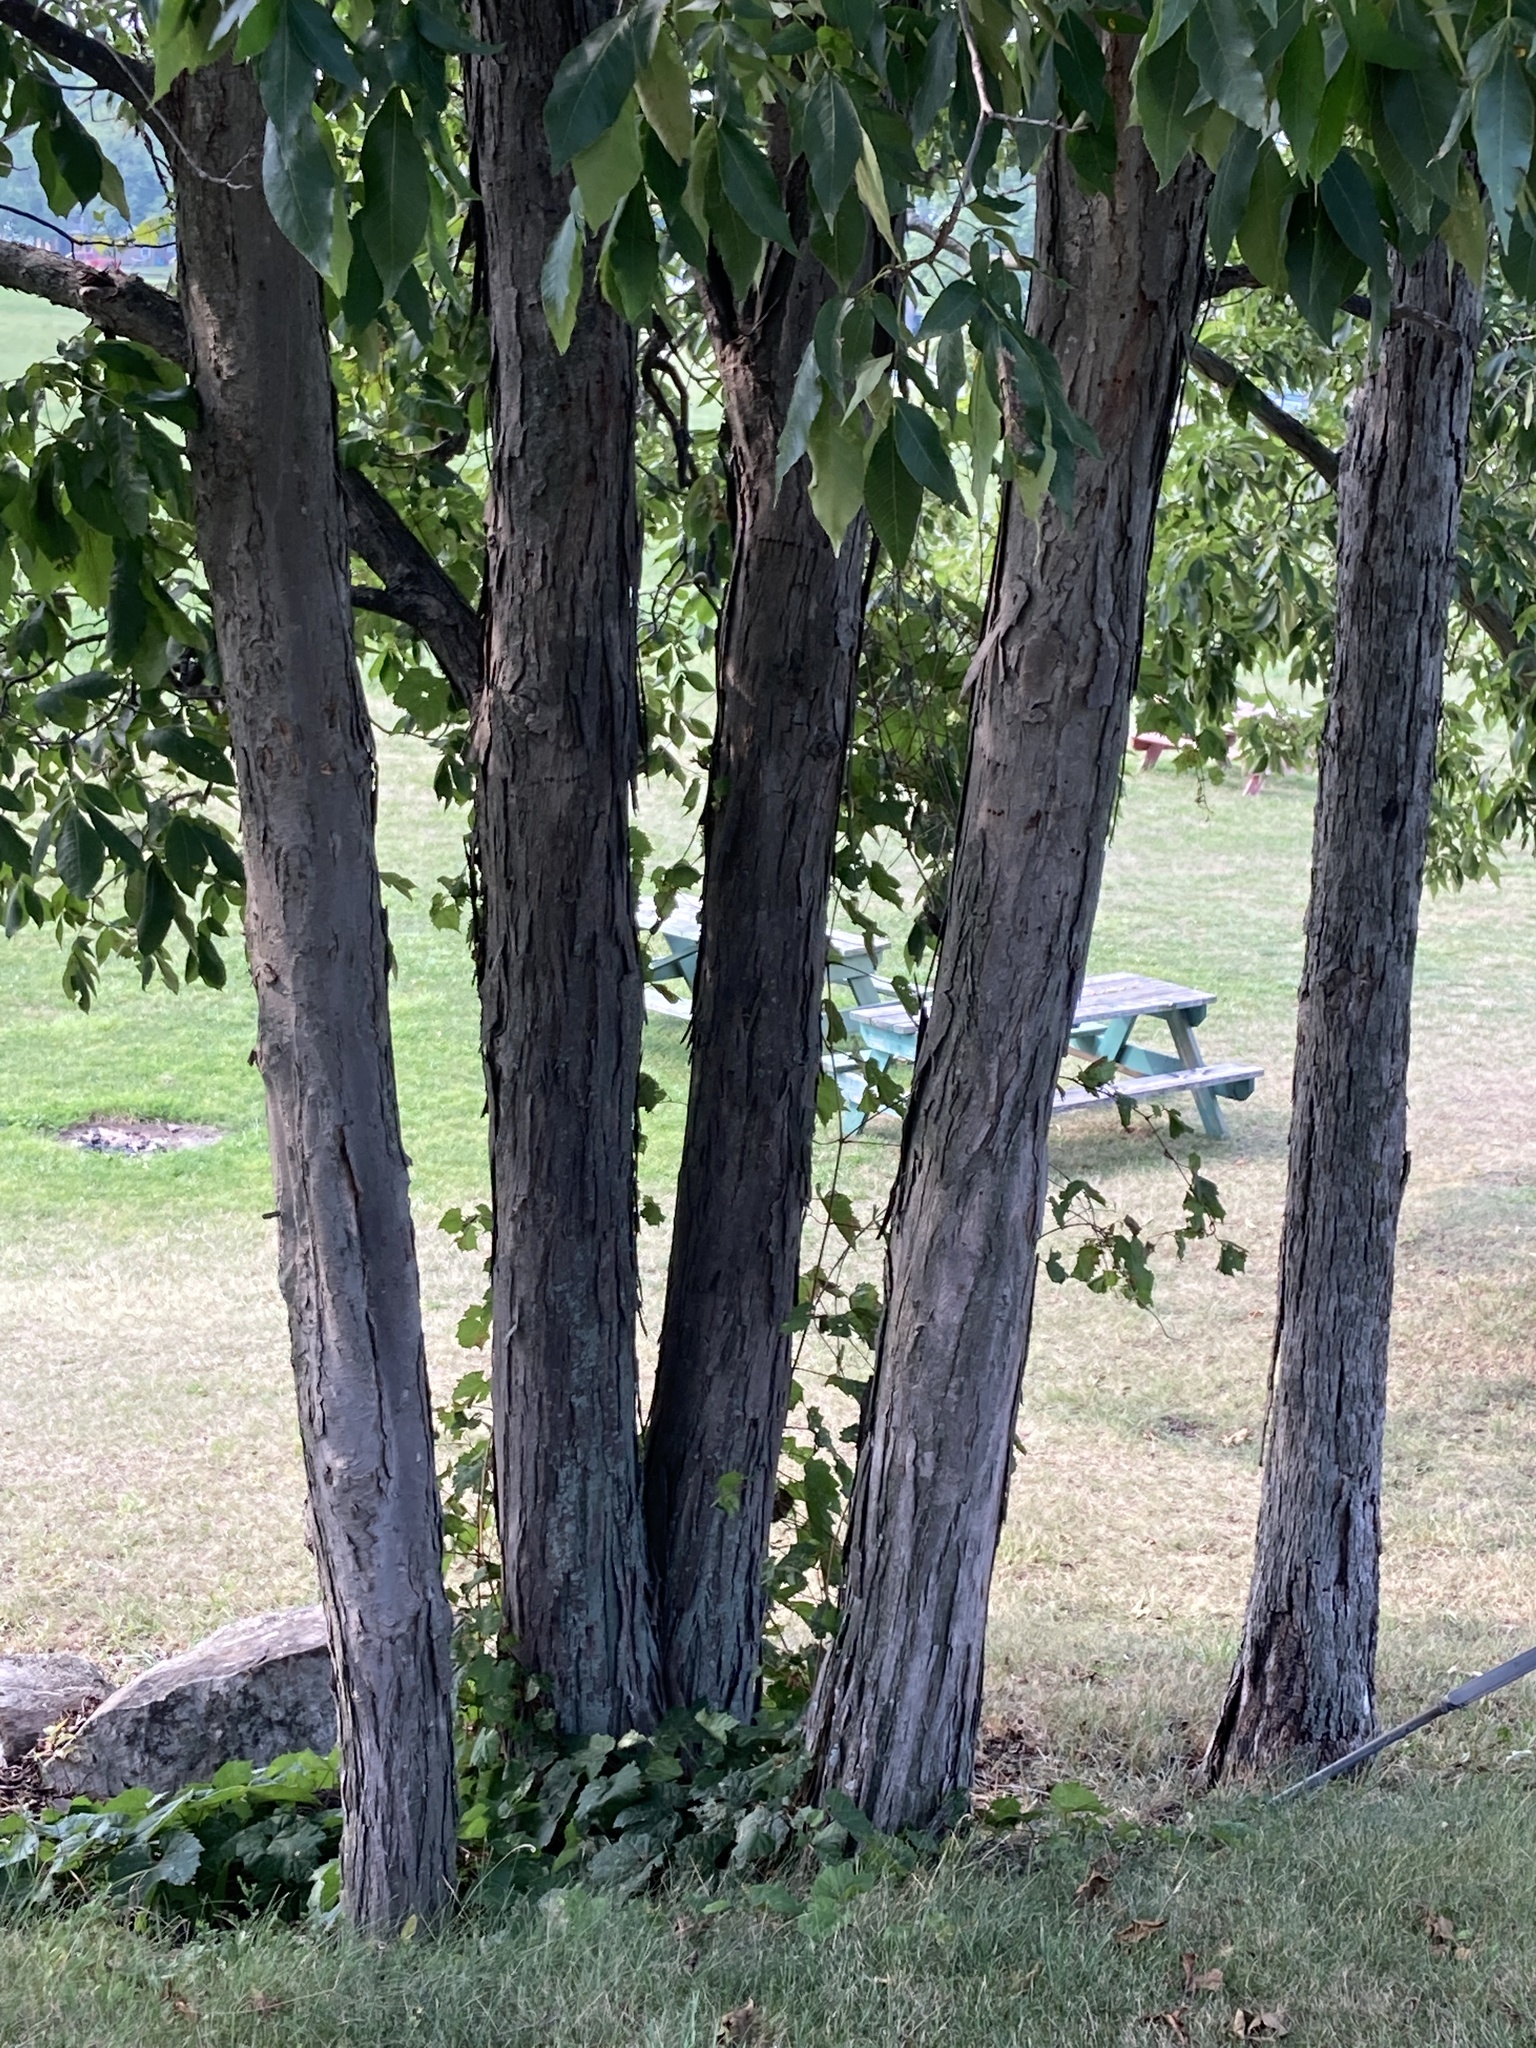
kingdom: Plantae
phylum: Tracheophyta
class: Magnoliopsida
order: Fagales
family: Juglandaceae
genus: Carya
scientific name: Carya ovata
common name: Shagbark hickory
